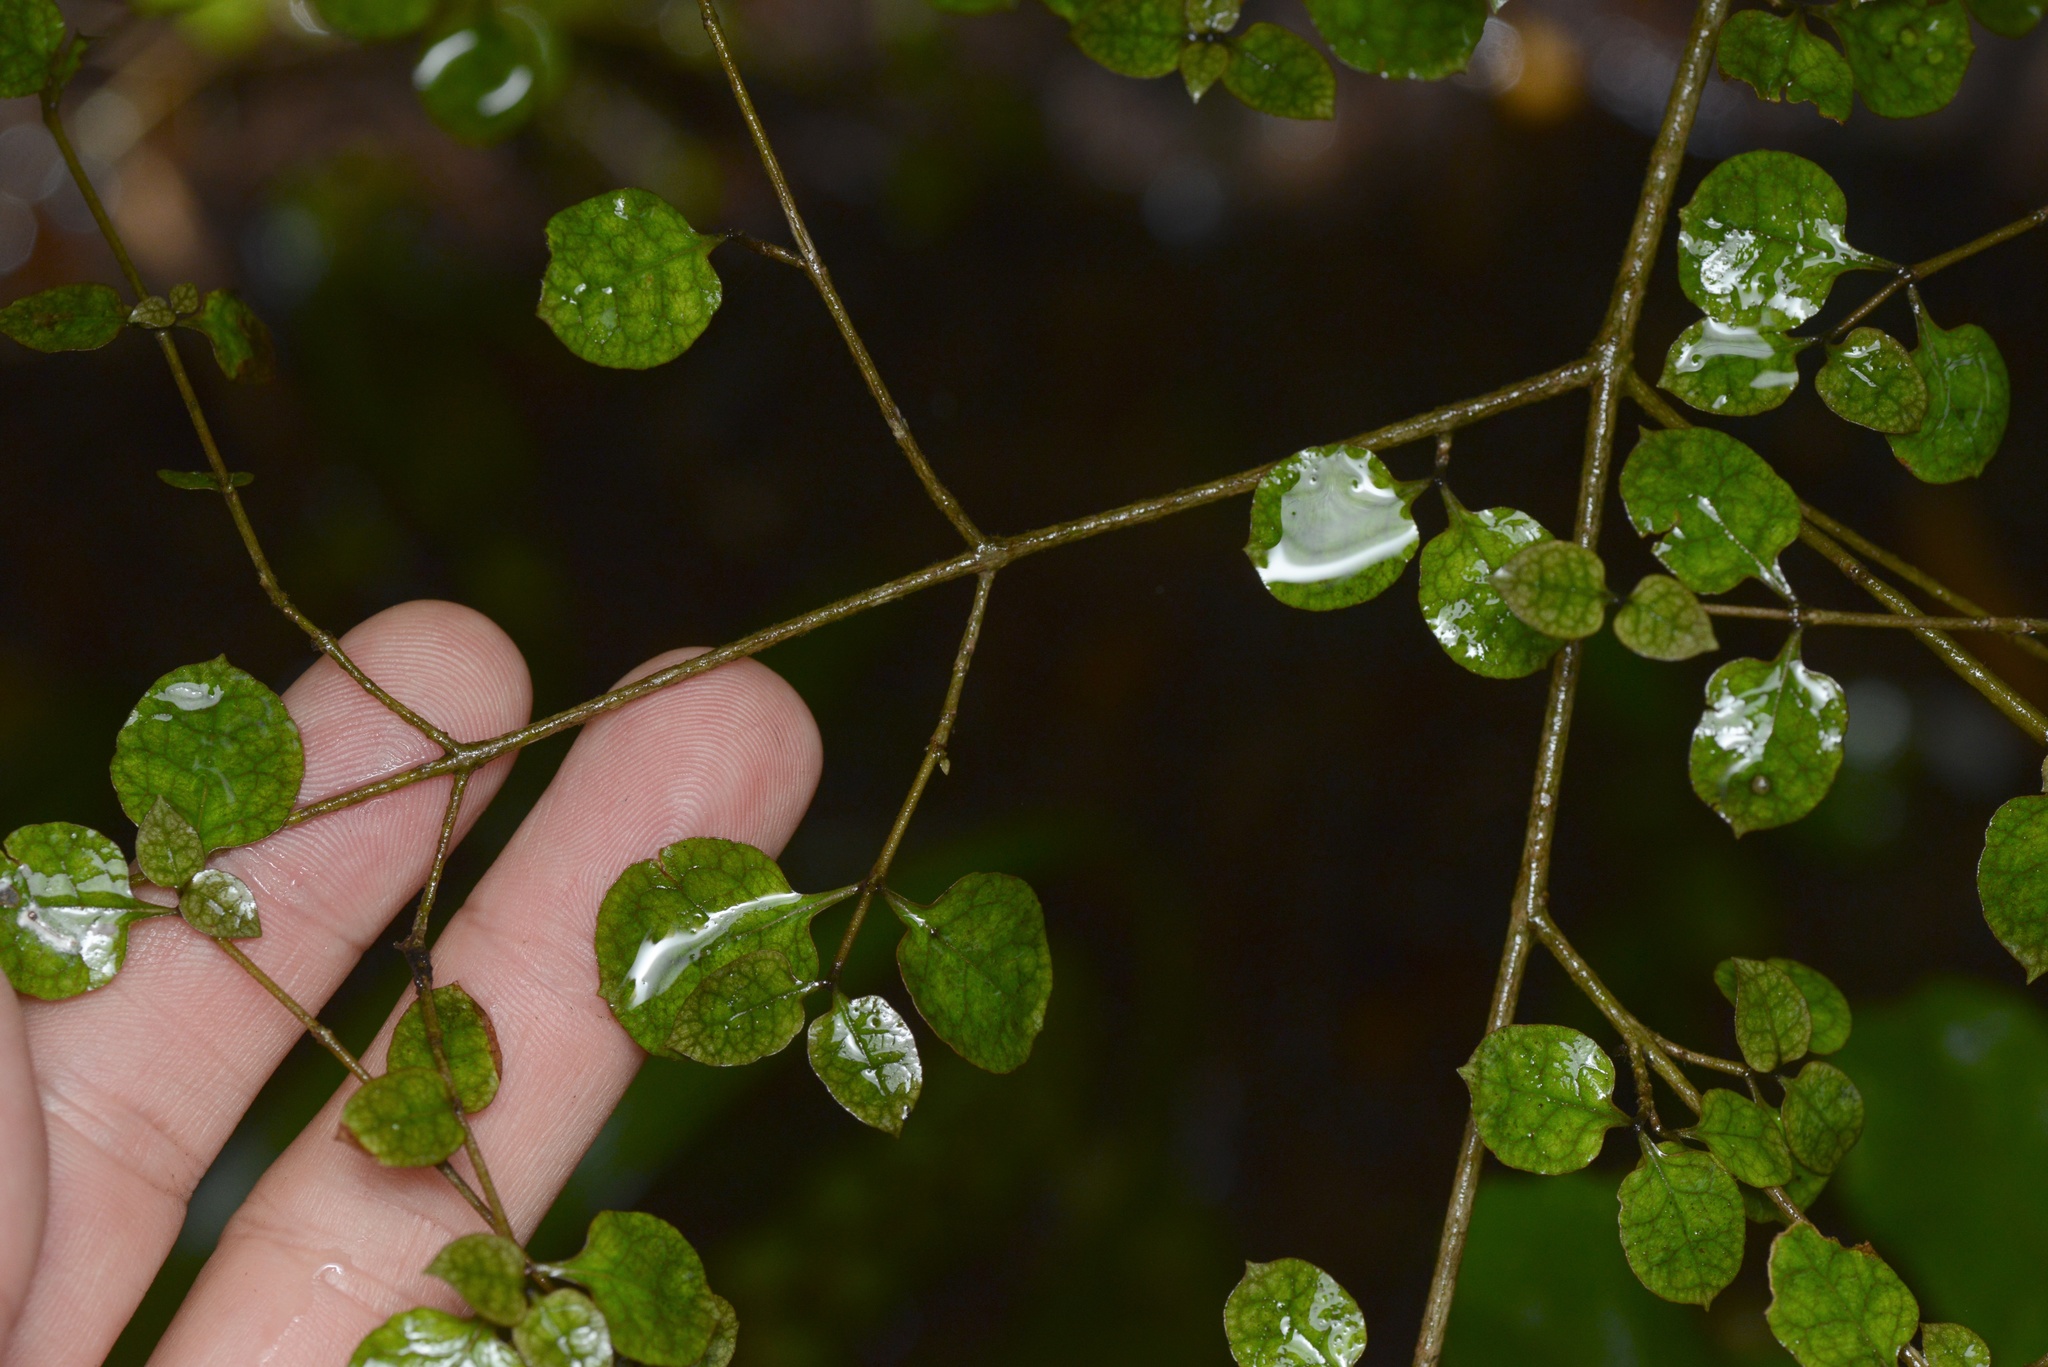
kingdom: Plantae
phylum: Tracheophyta
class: Magnoliopsida
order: Gentianales
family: Rubiaceae
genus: Coprosma
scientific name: Coprosma tenuicaulis
